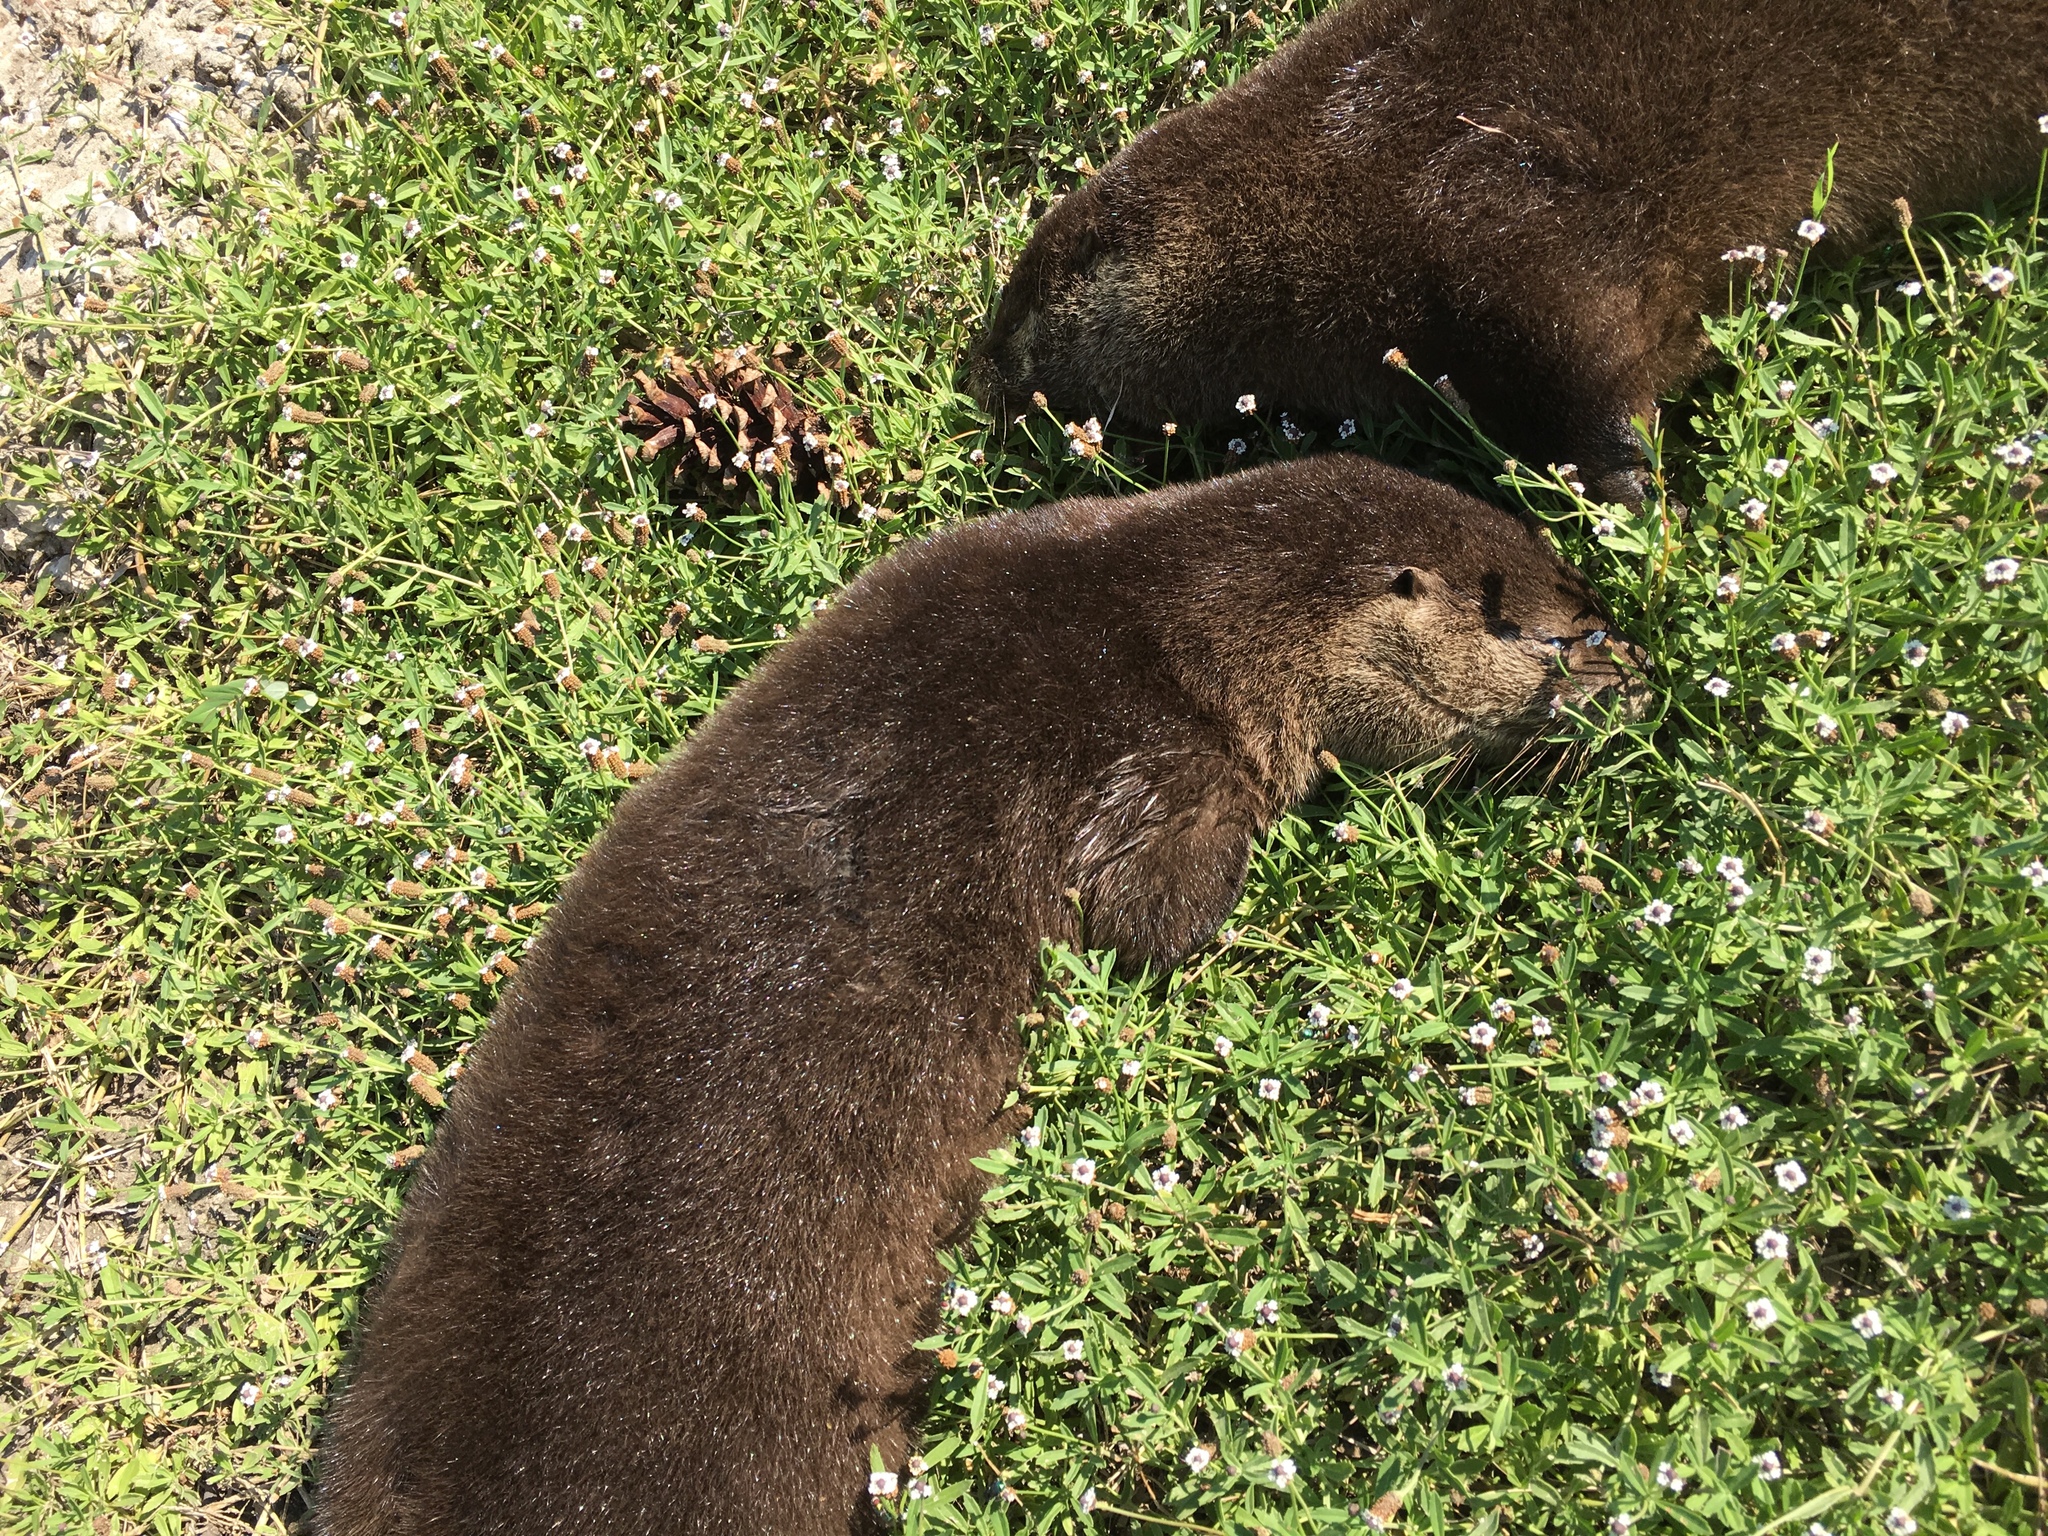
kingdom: Animalia
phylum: Chordata
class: Mammalia
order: Carnivora
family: Mustelidae
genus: Lontra
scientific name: Lontra canadensis
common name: North american river otter
